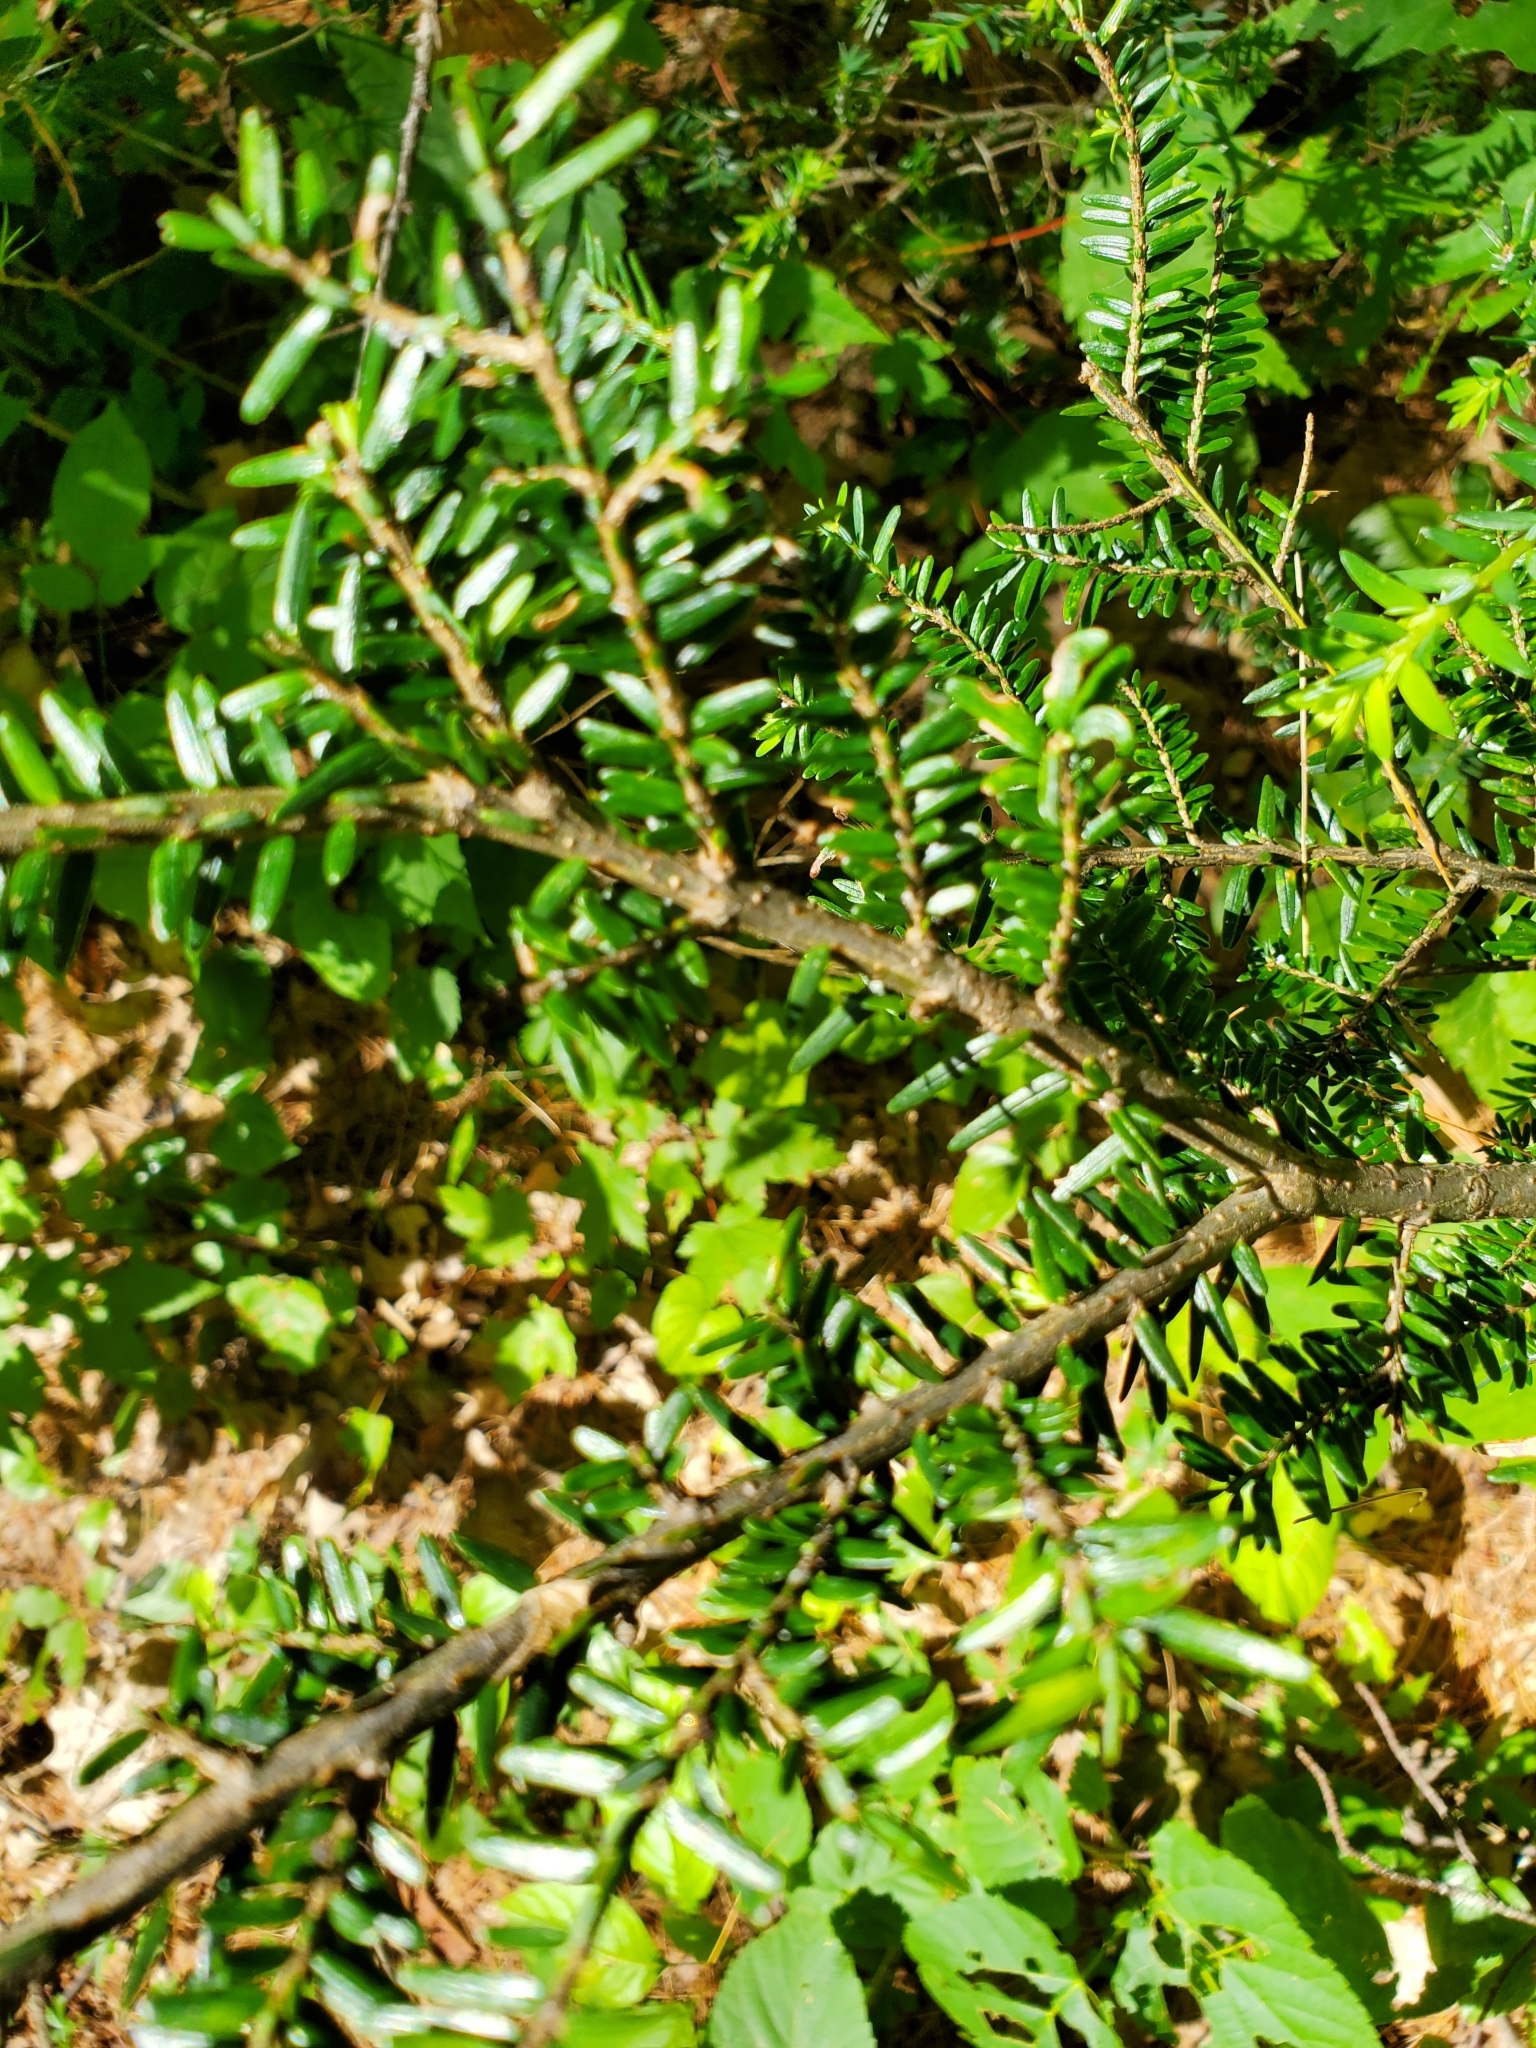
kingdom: Plantae
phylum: Tracheophyta
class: Pinopsida
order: Pinales
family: Pinaceae
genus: Tsuga
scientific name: Tsuga canadensis
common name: Eastern hemlock
